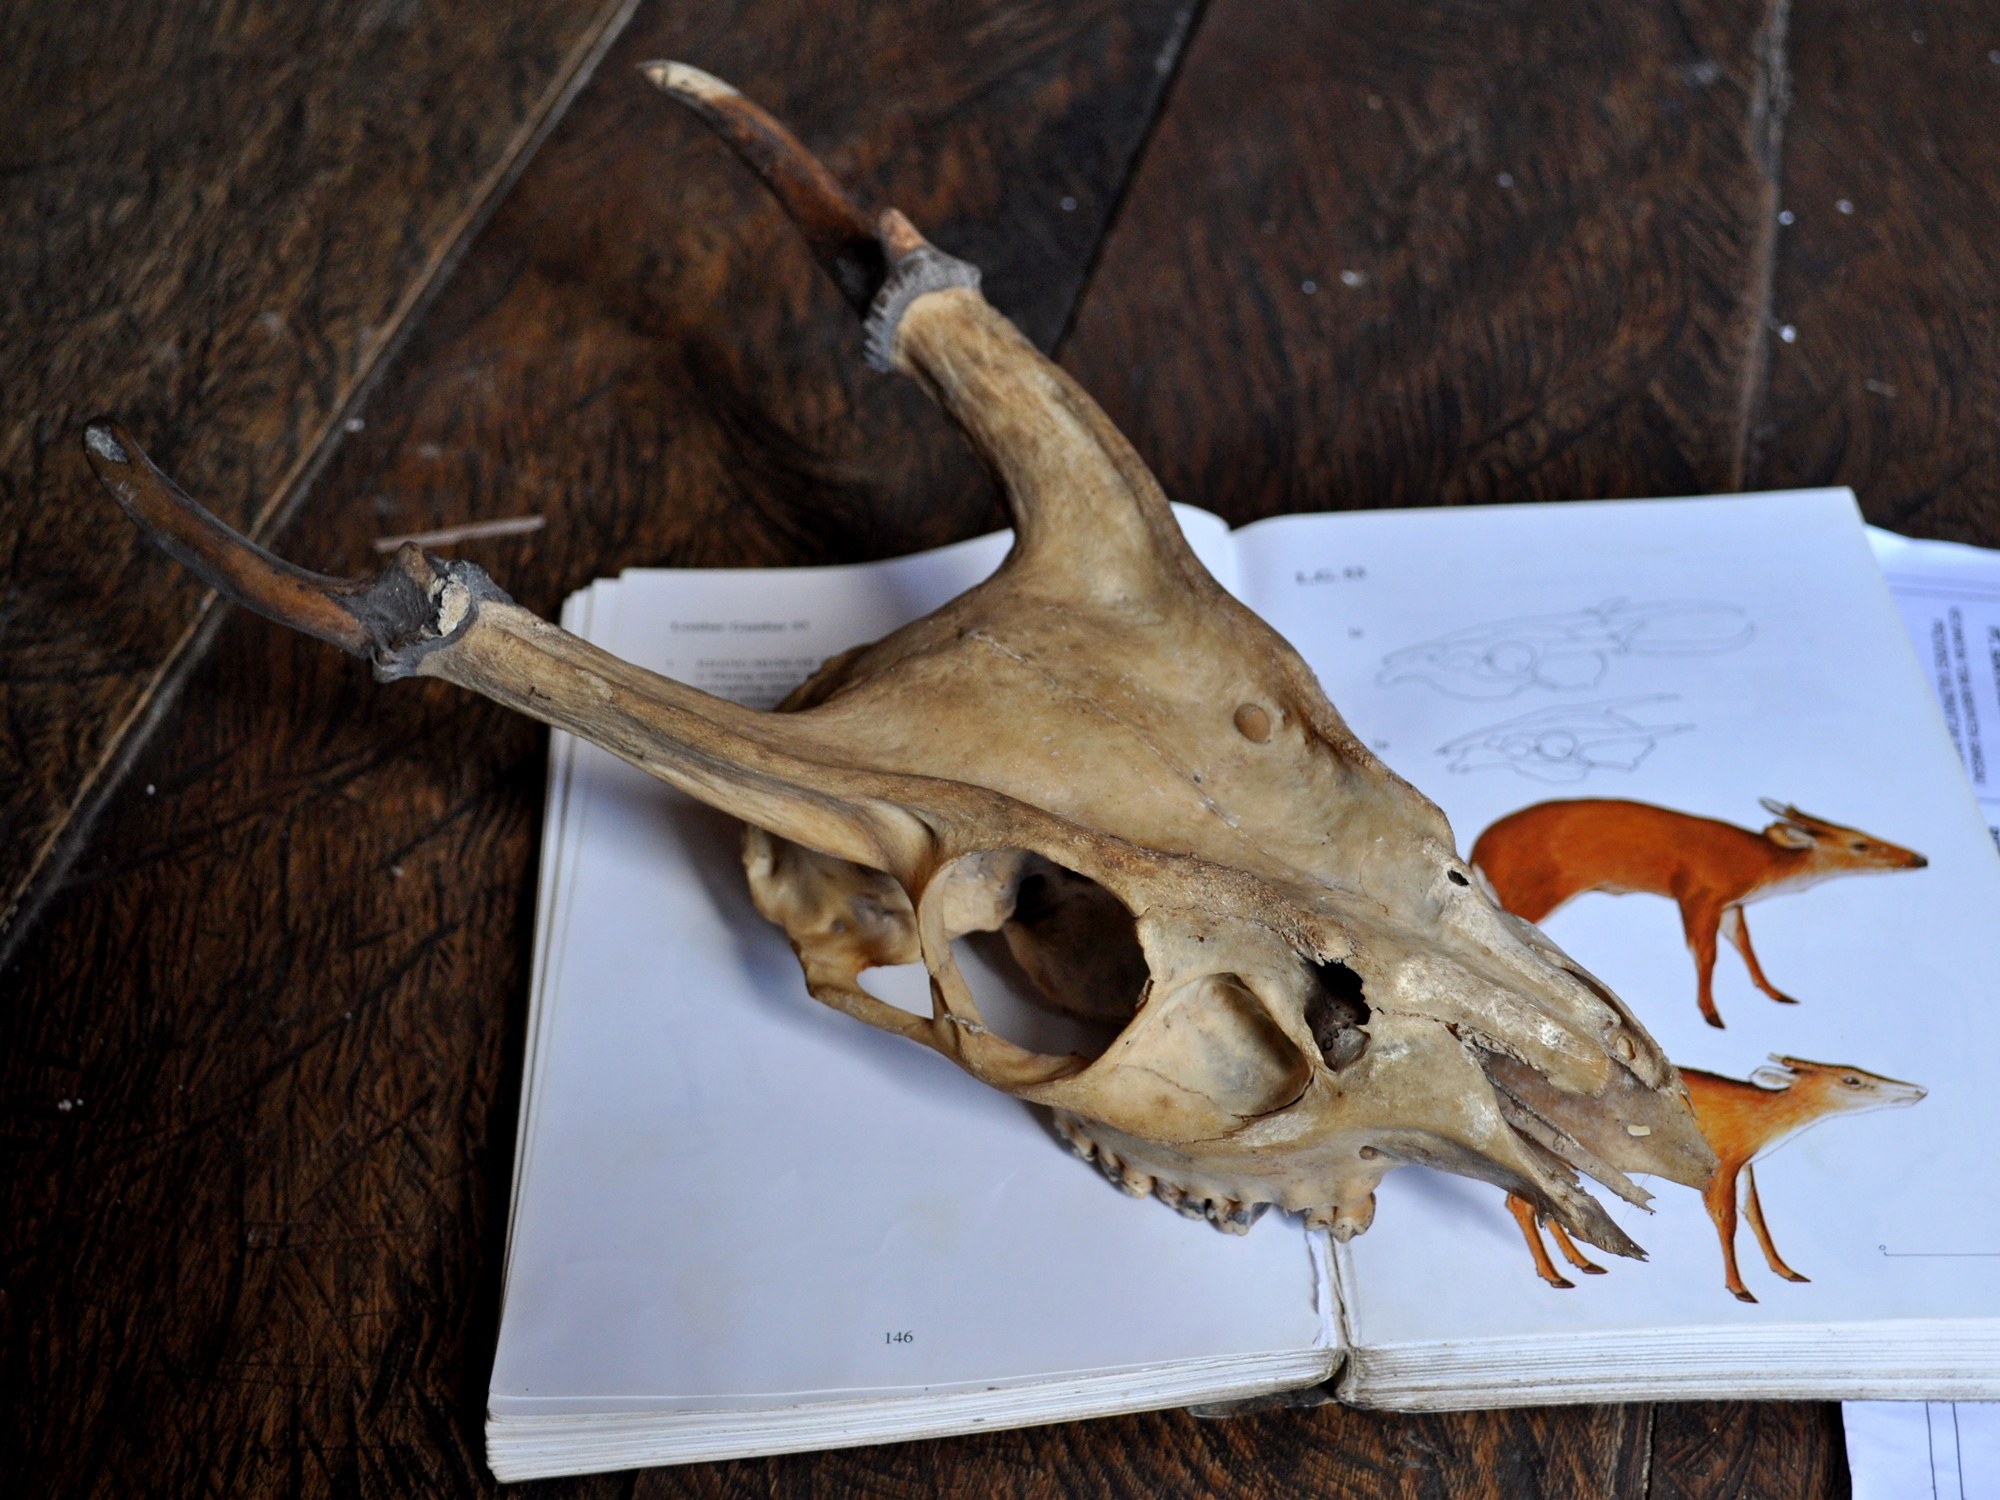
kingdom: Animalia
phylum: Chordata
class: Mammalia
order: Artiodactyla
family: Cervidae
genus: Muntiacus
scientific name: Muntiacus muntjak
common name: Indian muntjac
